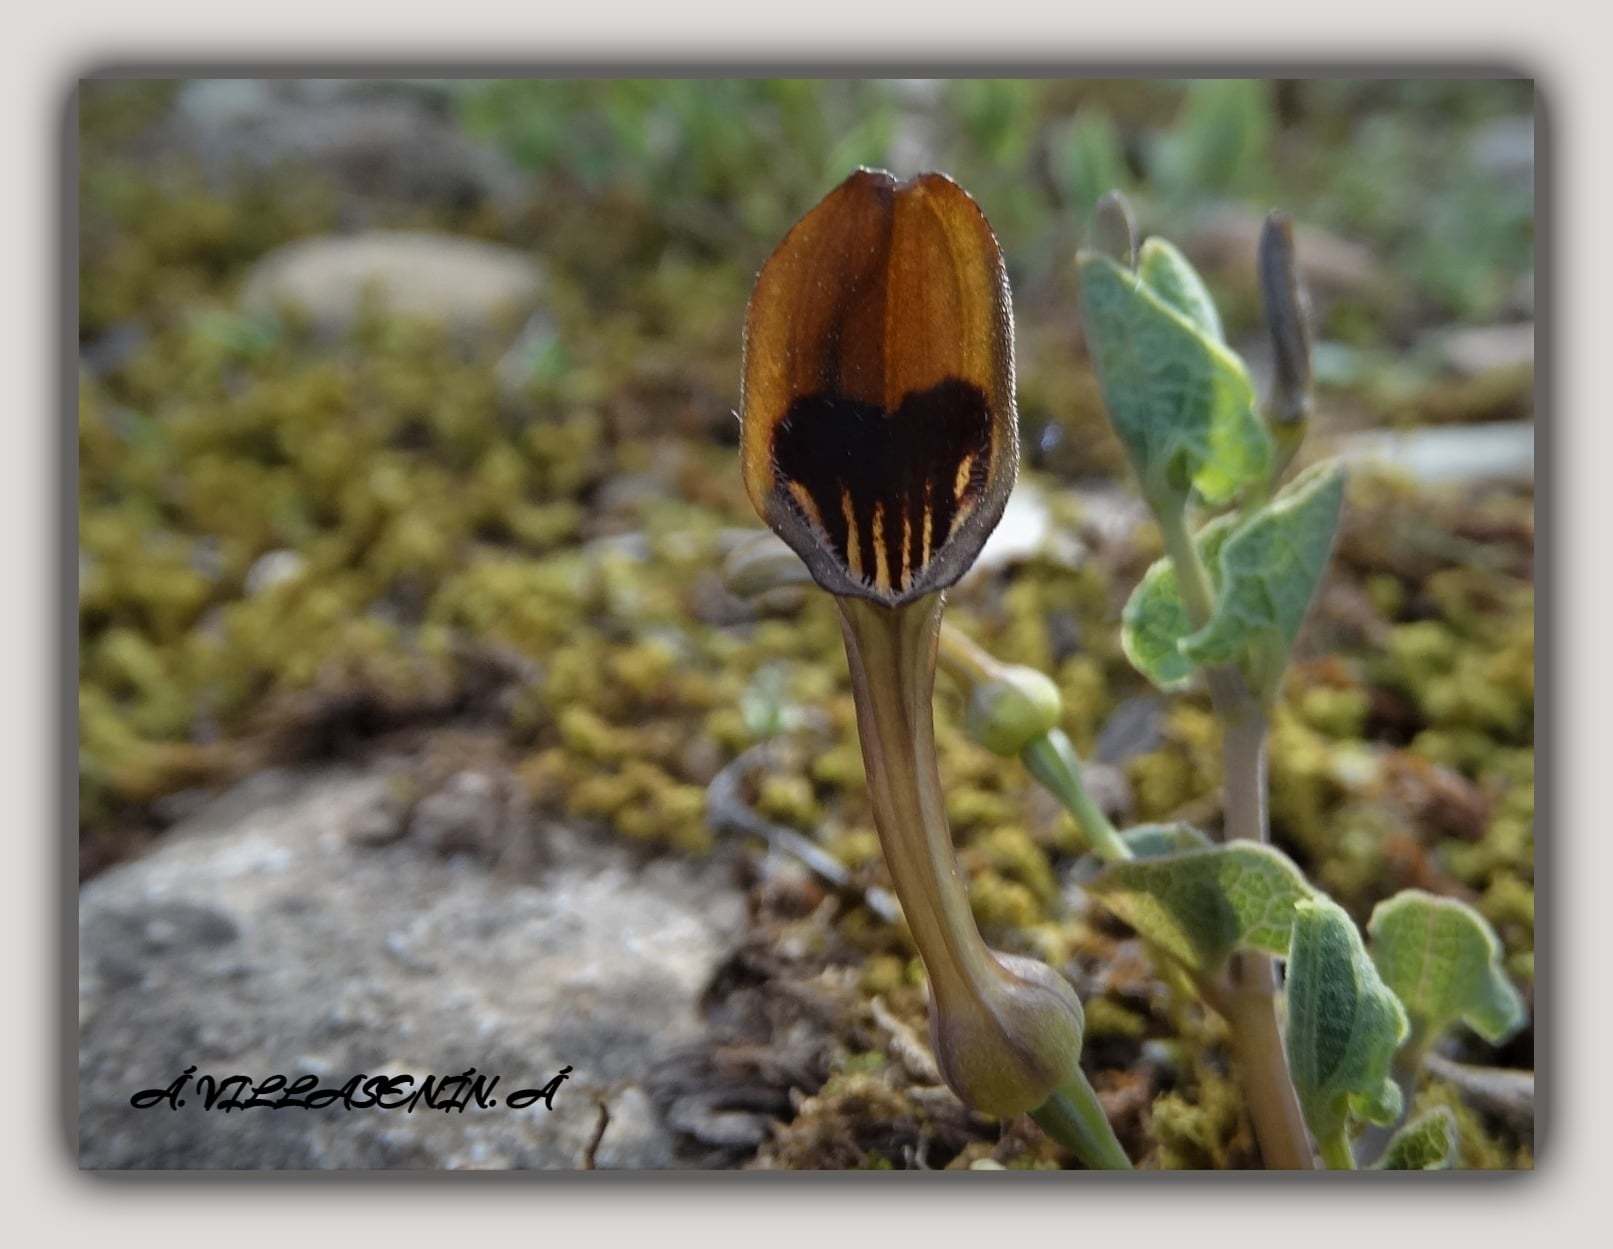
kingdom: Plantae
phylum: Tracheophyta
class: Magnoliopsida
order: Piperales
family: Aristolochiaceae
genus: Aristolochia
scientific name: Aristolochia pistolochia
